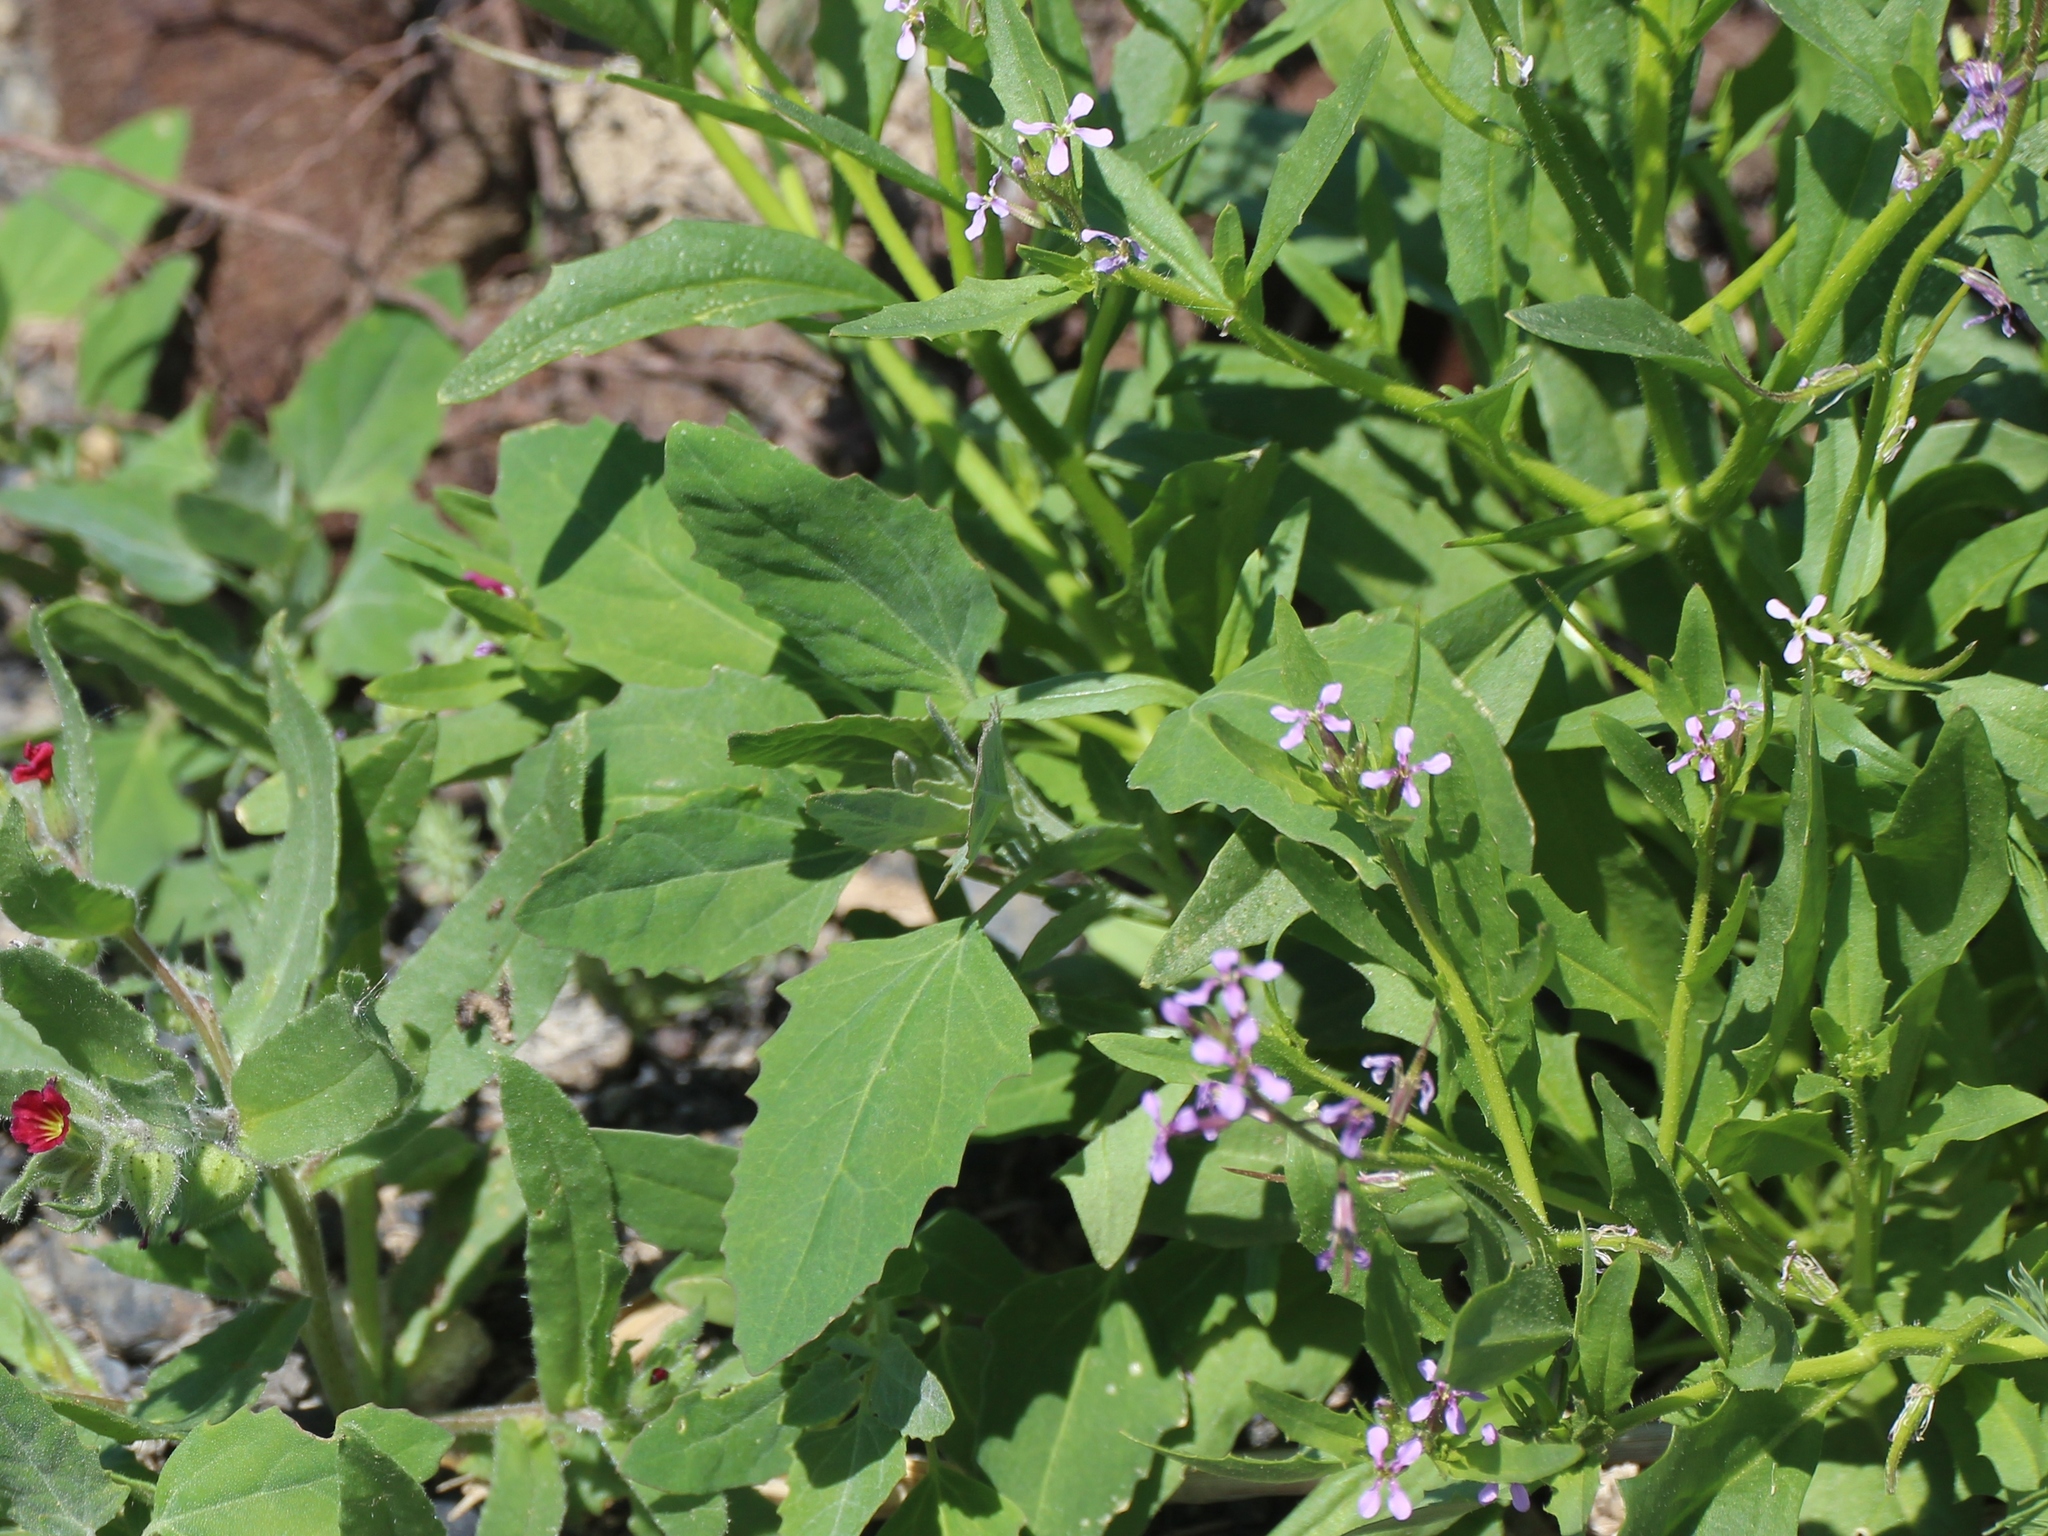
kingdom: Plantae
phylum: Tracheophyta
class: Magnoliopsida
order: Brassicales
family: Brassicaceae
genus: Chorispora
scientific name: Chorispora tenella
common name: Crossflower
